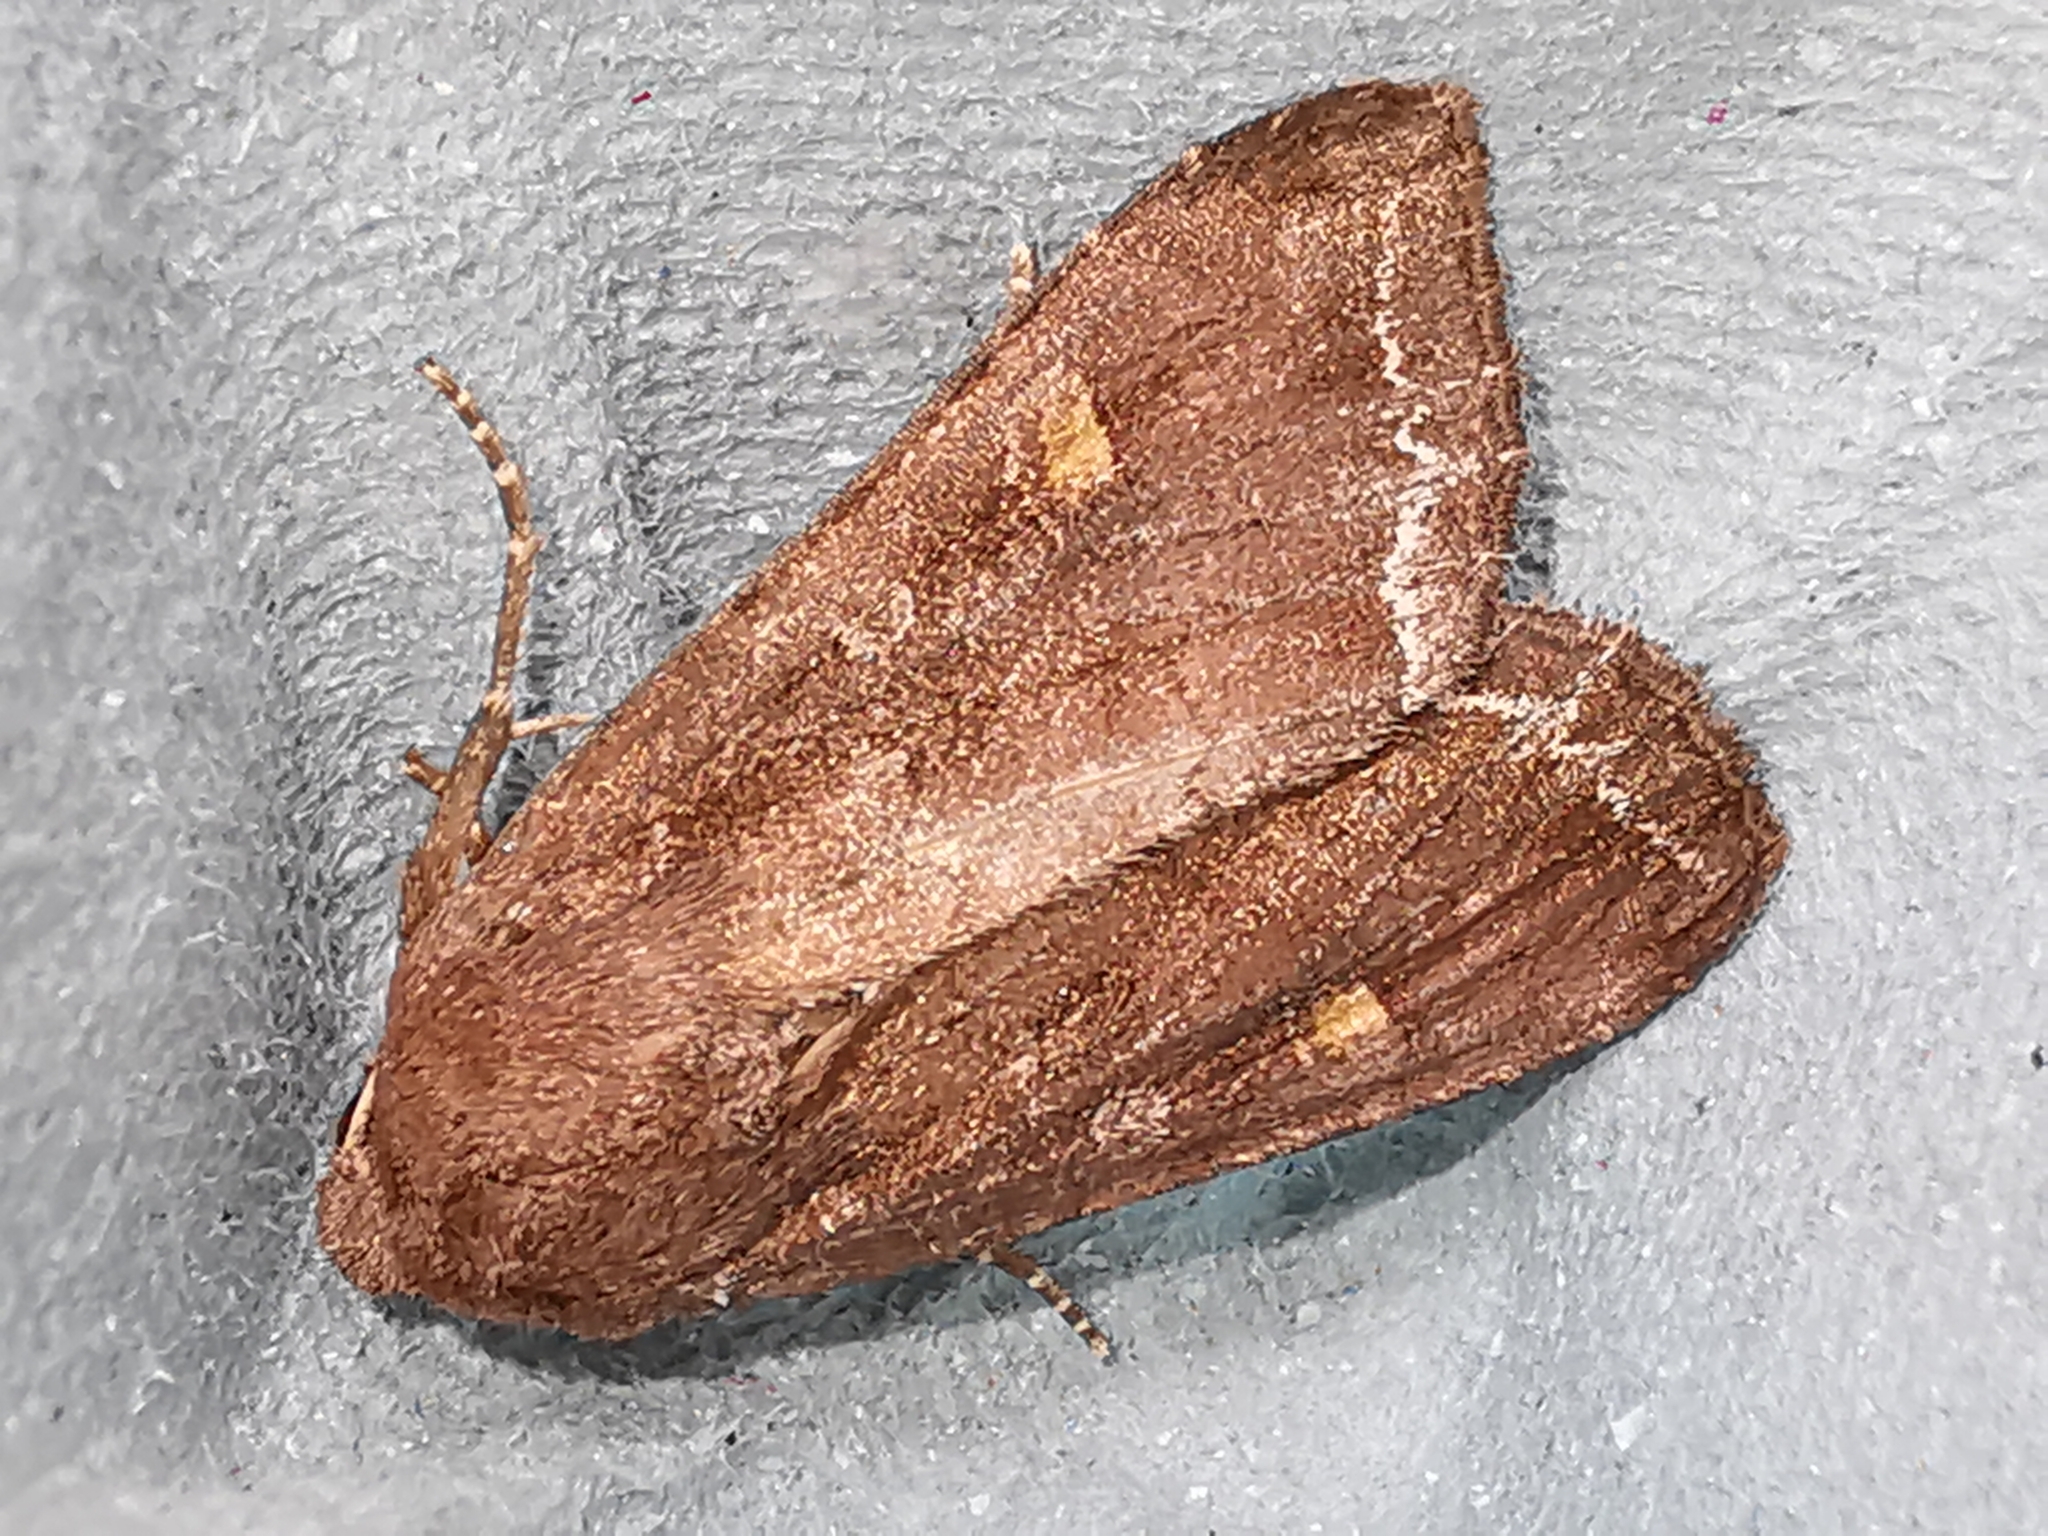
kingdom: Animalia
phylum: Arthropoda
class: Insecta
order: Lepidoptera
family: Noctuidae
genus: Lacanobia
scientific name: Lacanobia oleracea
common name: Bright-line brown-eye
